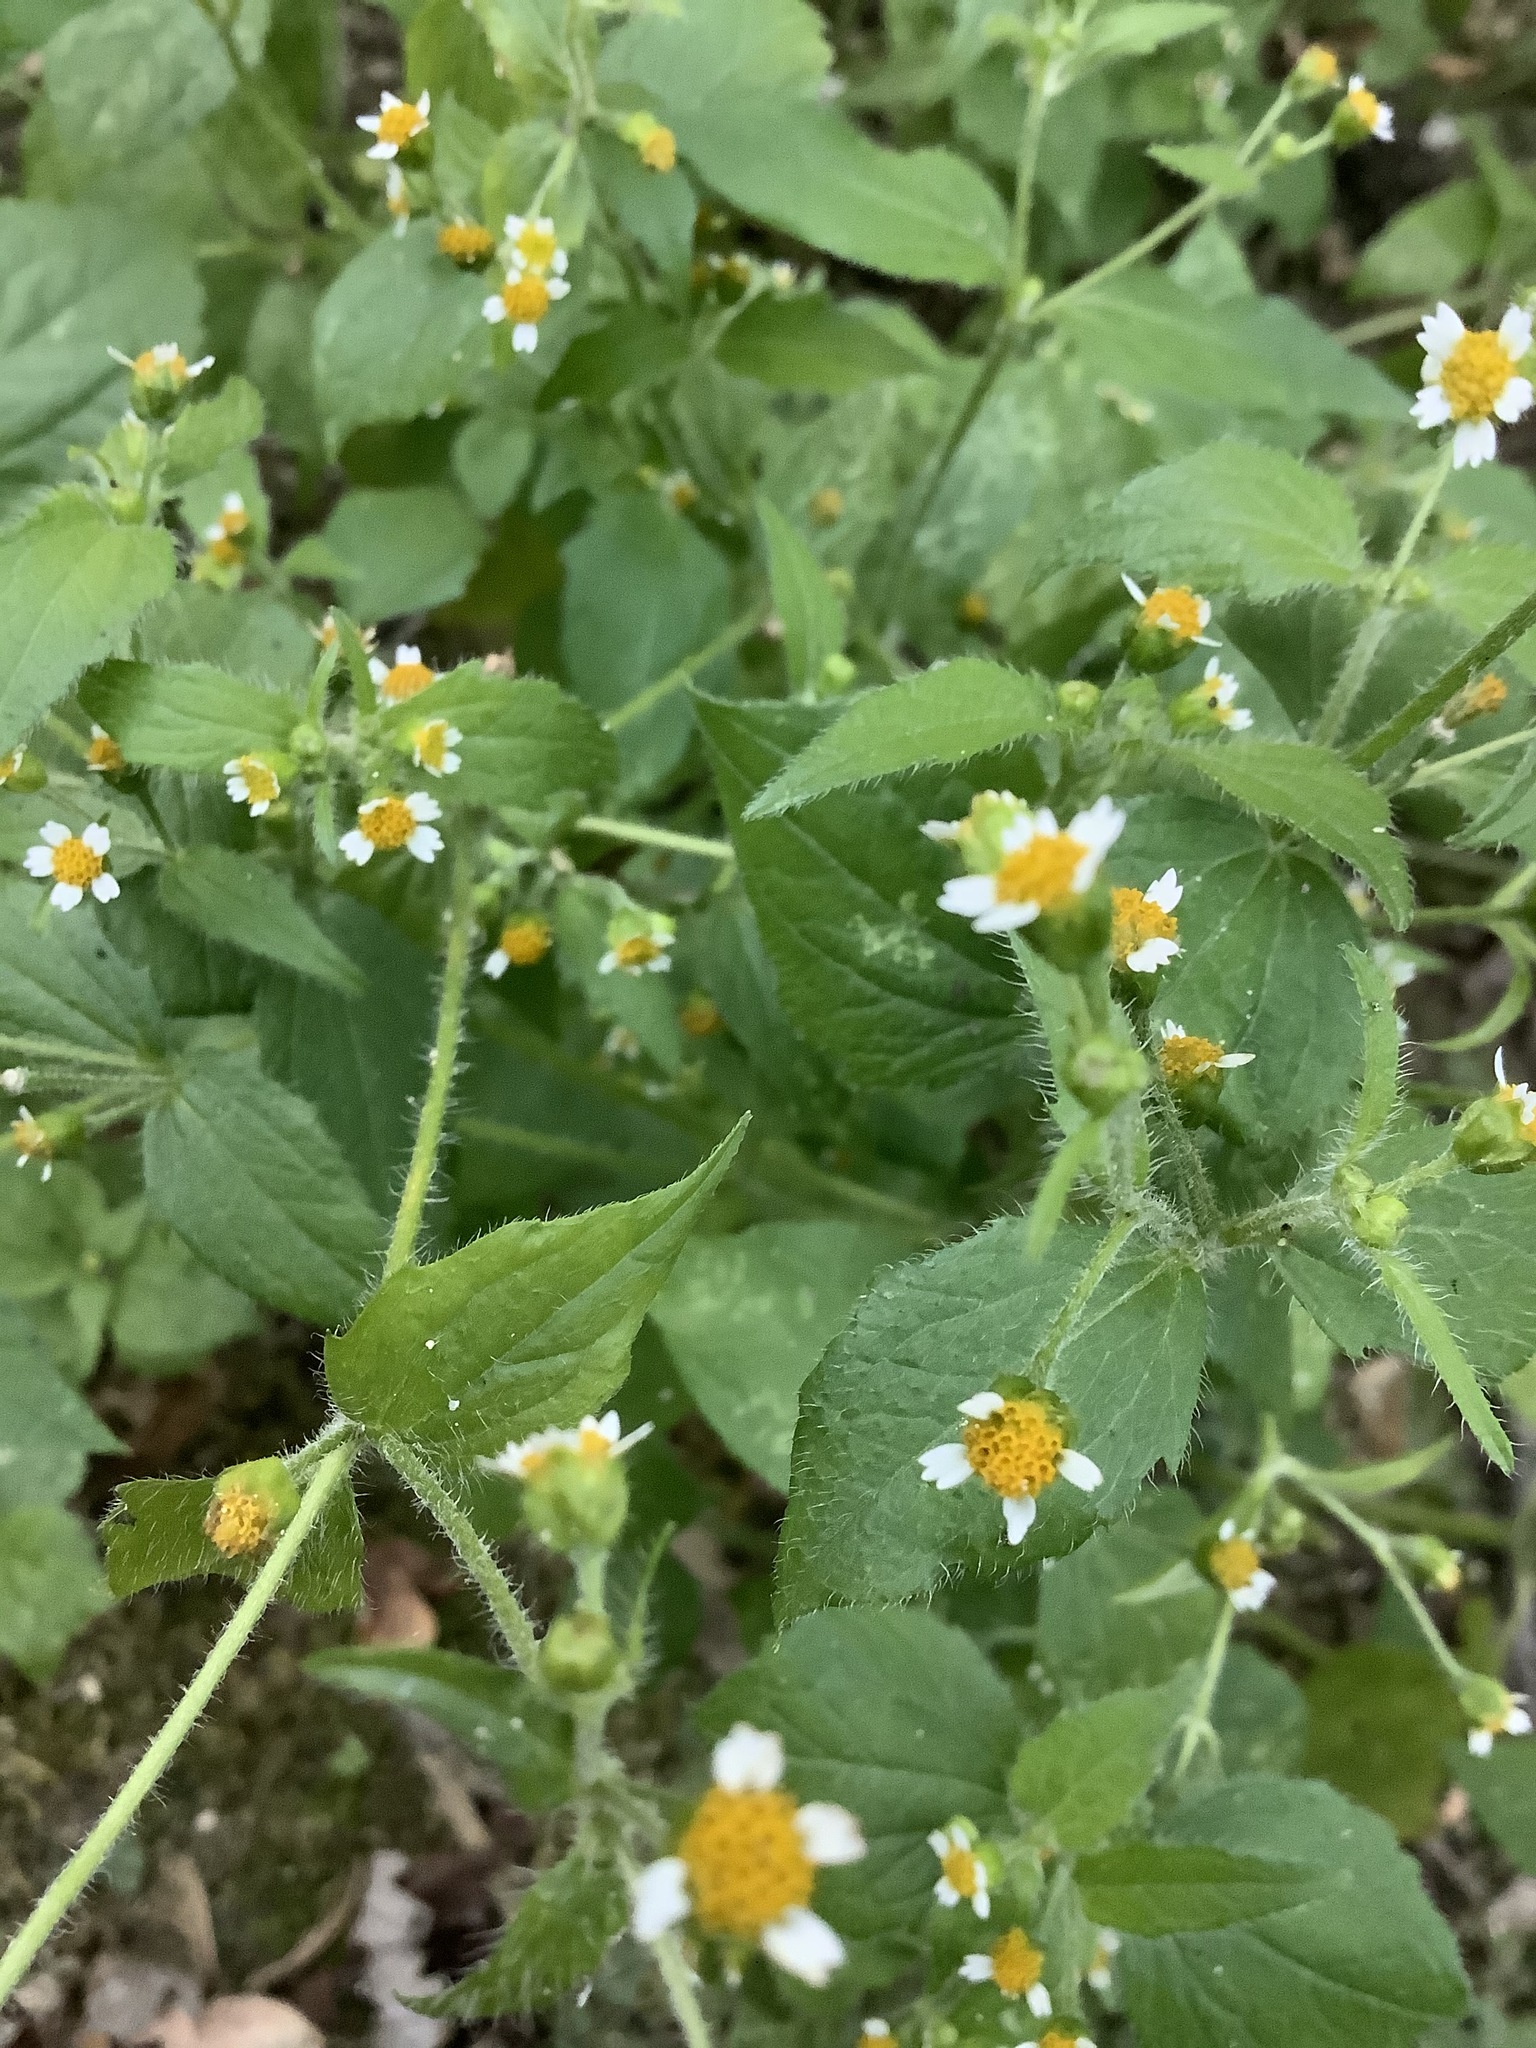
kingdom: Plantae
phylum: Tracheophyta
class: Magnoliopsida
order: Asterales
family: Asteraceae
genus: Galinsoga
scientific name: Galinsoga quadriradiata
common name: Shaggy soldier
